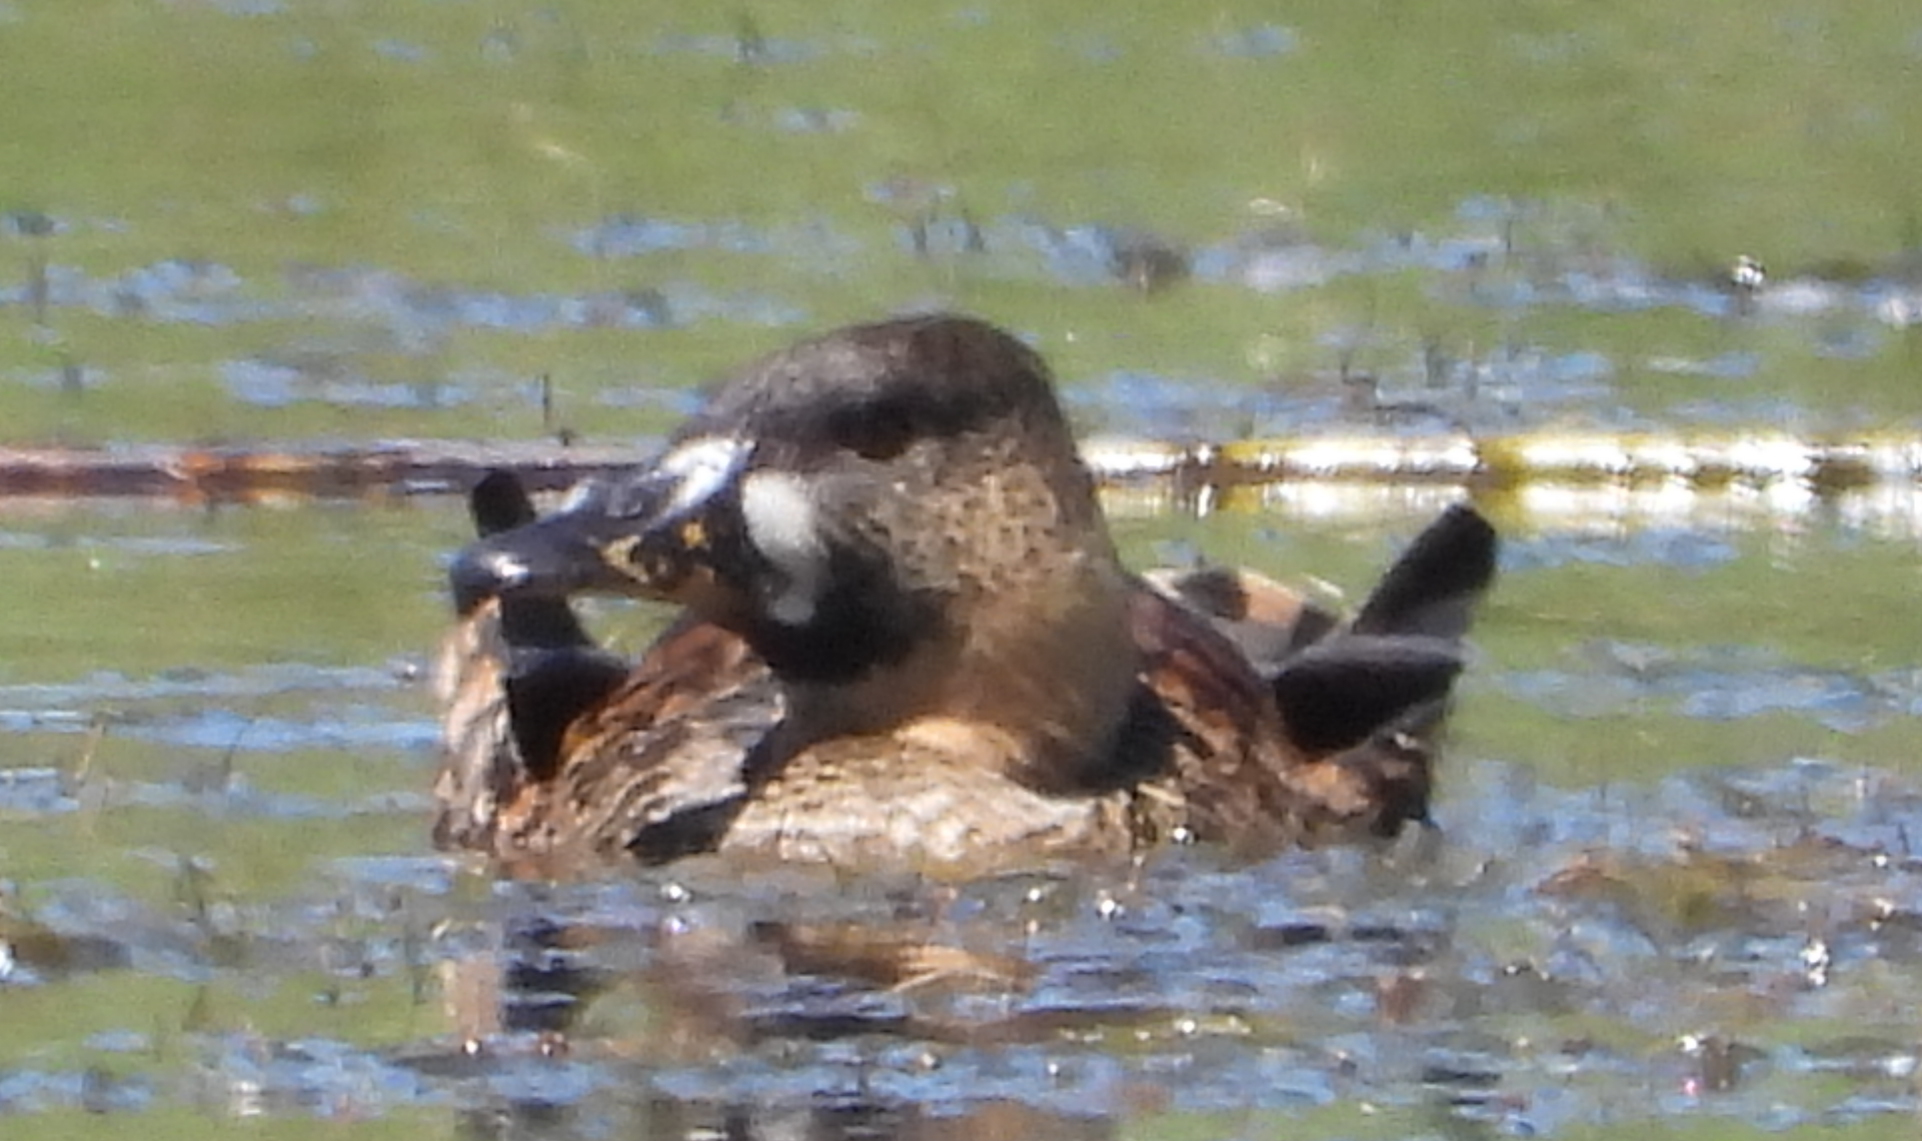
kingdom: Animalia
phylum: Chordata
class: Aves
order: Anseriformes
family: Anatidae
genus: Thalassornis
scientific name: Thalassornis leuconotus
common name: White-backed duck
